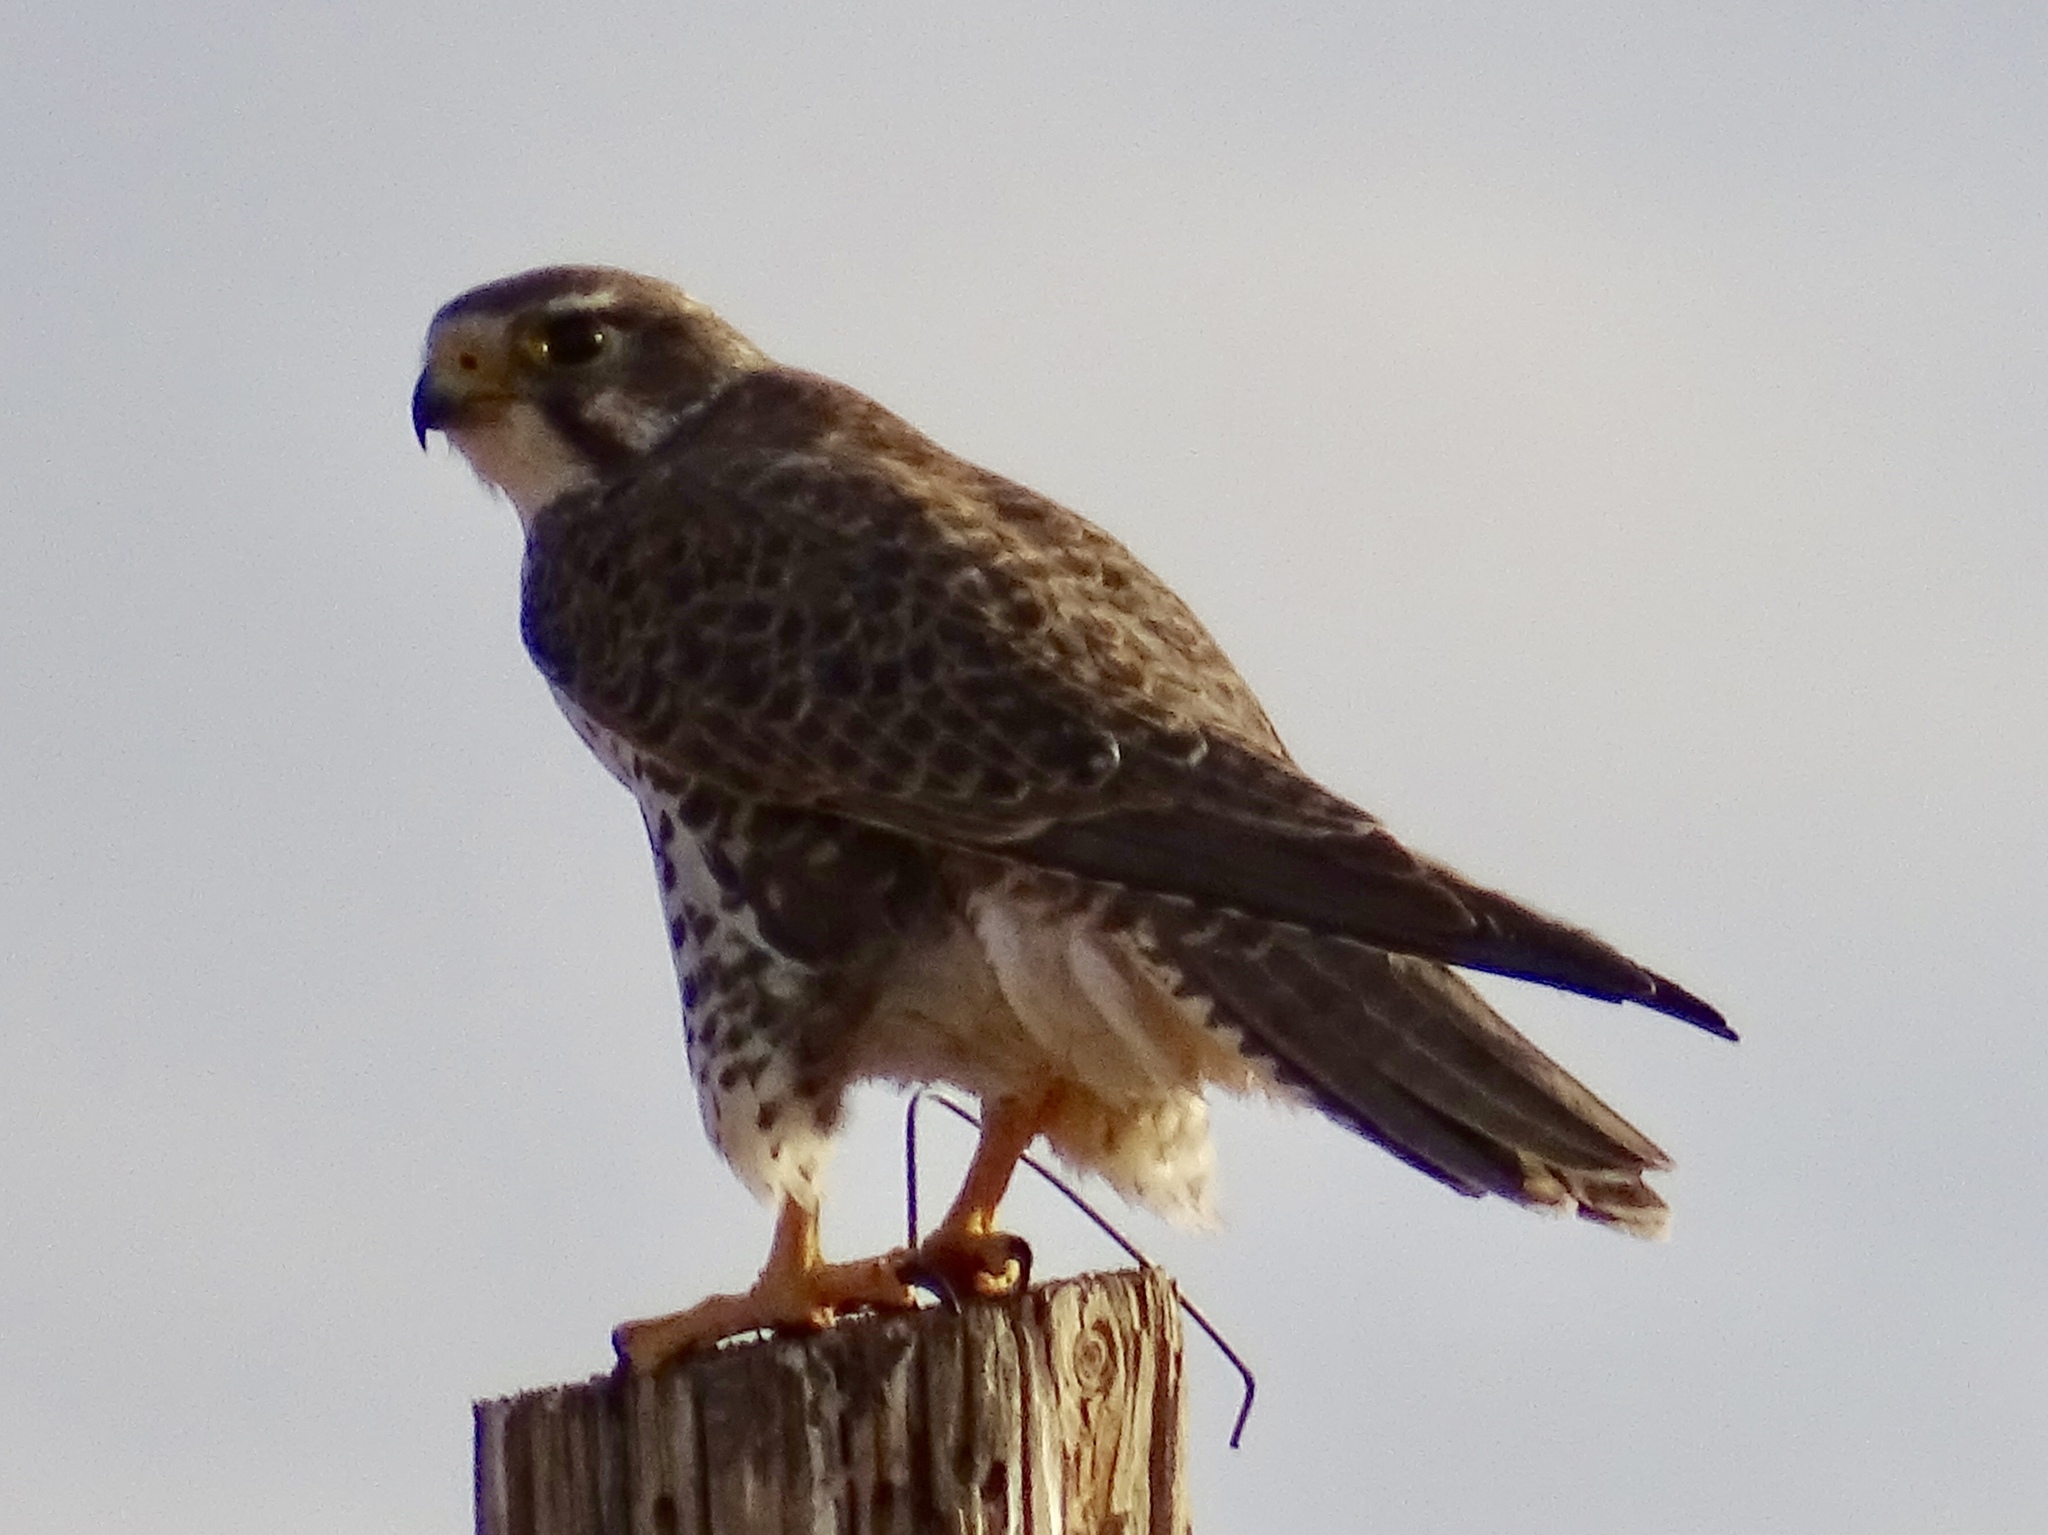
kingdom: Animalia
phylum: Chordata
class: Aves
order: Falconiformes
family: Falconidae
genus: Falco
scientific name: Falco mexicanus
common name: Prairie falcon
